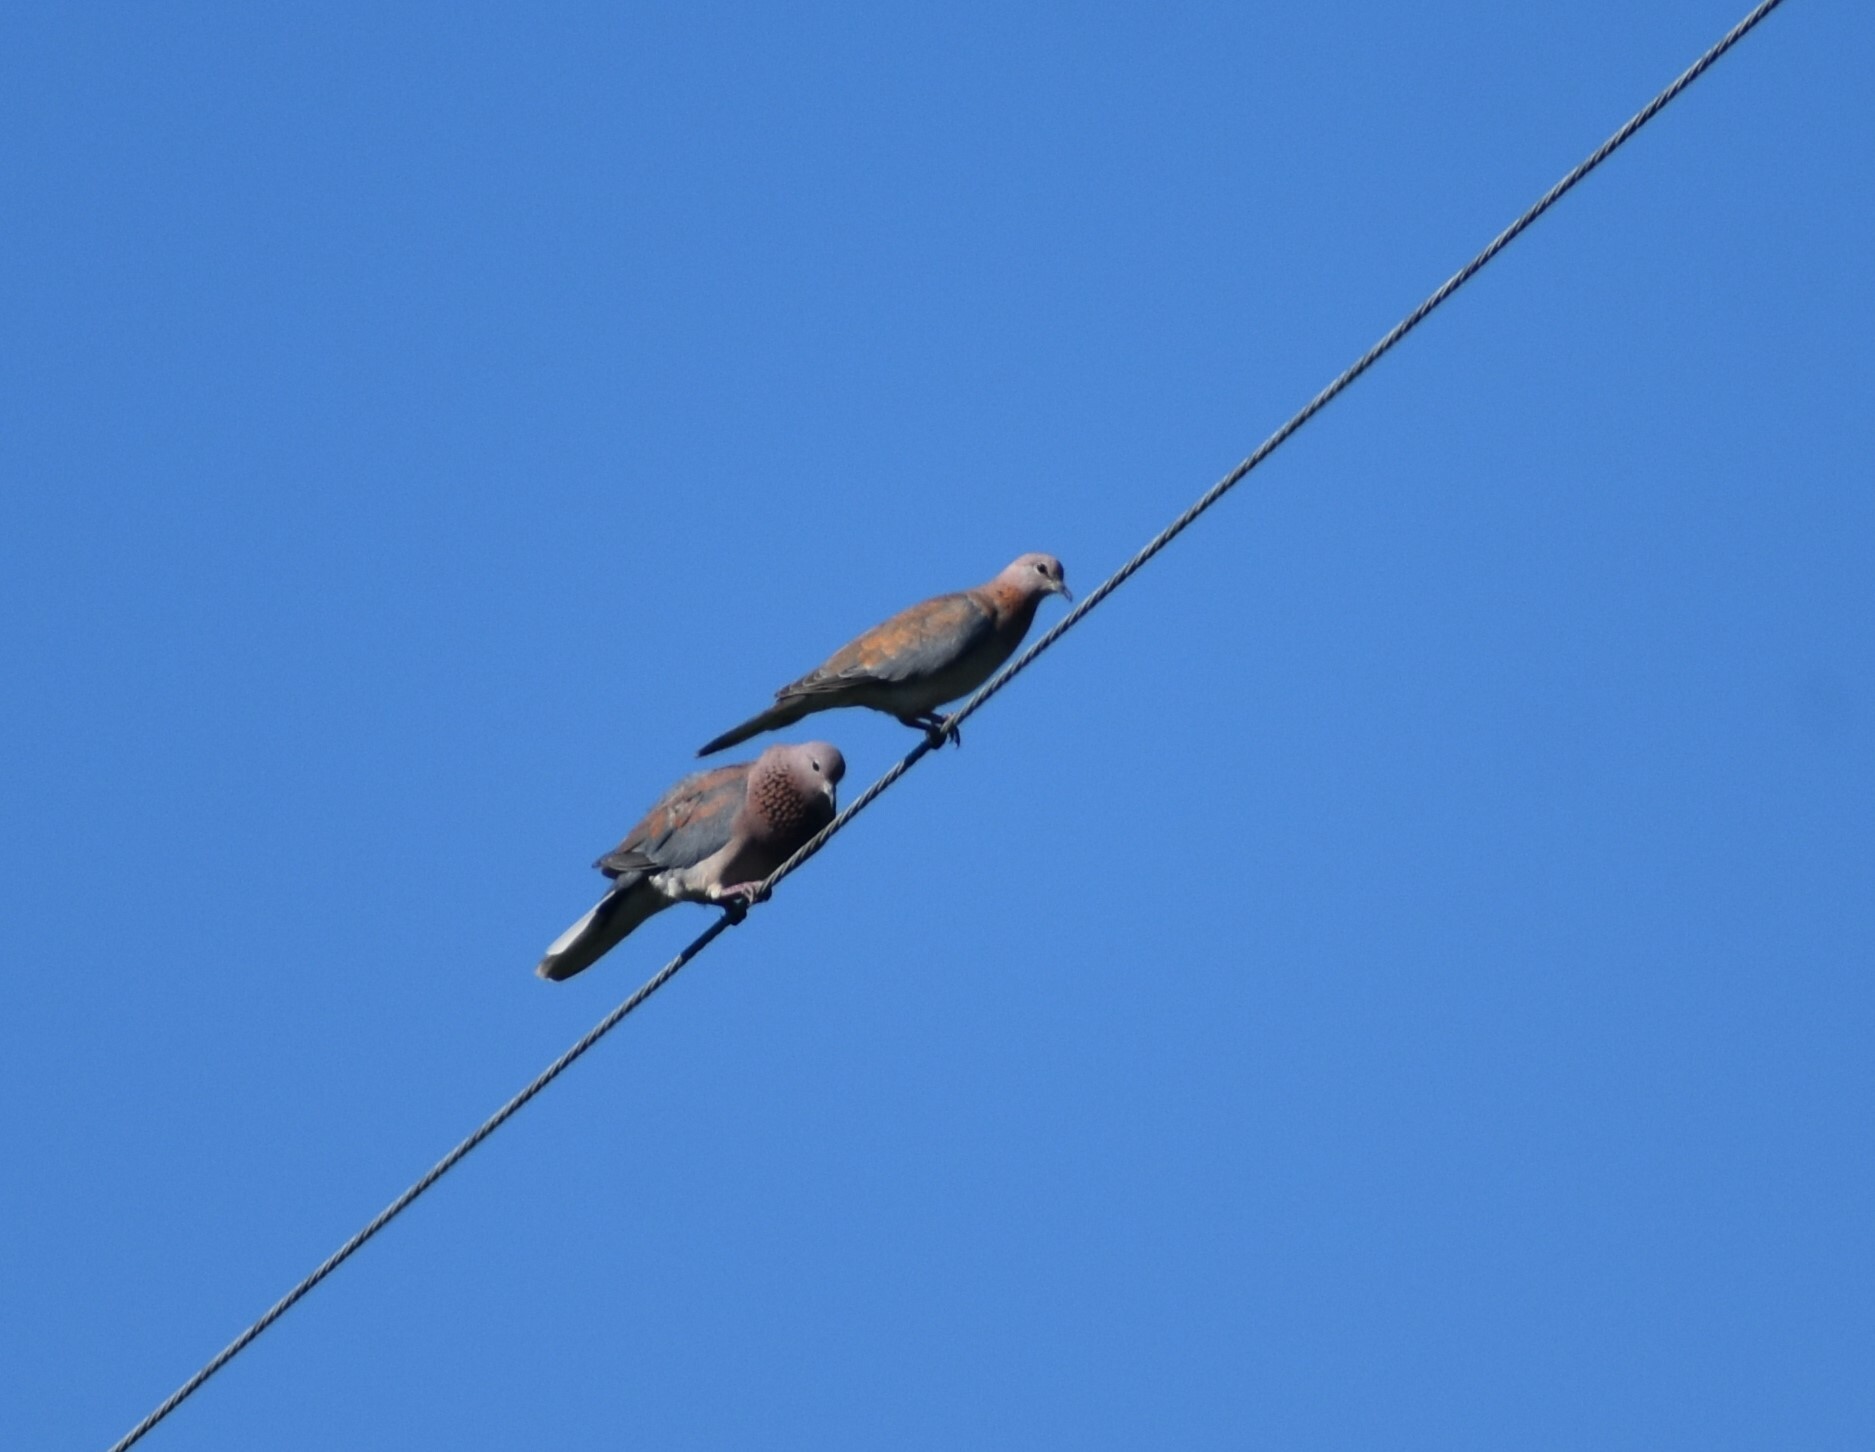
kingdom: Animalia
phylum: Chordata
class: Aves
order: Columbiformes
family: Columbidae
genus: Spilopelia
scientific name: Spilopelia senegalensis
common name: Laughing dove
